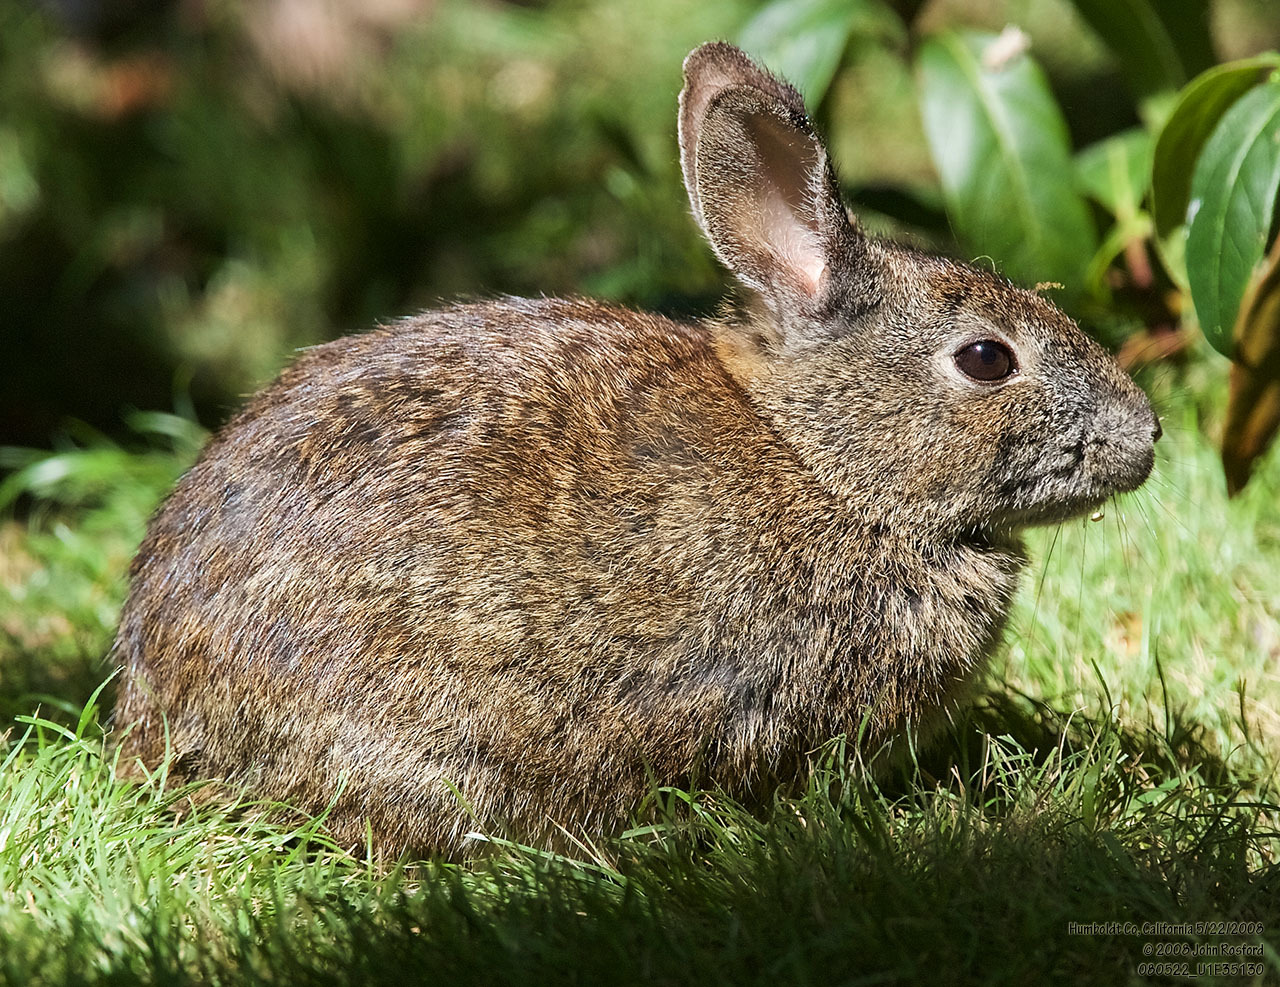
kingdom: Animalia
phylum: Chordata
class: Mammalia
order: Lagomorpha
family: Leporidae
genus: Sylvilagus
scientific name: Sylvilagus bachmani
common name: Brush rabbit
